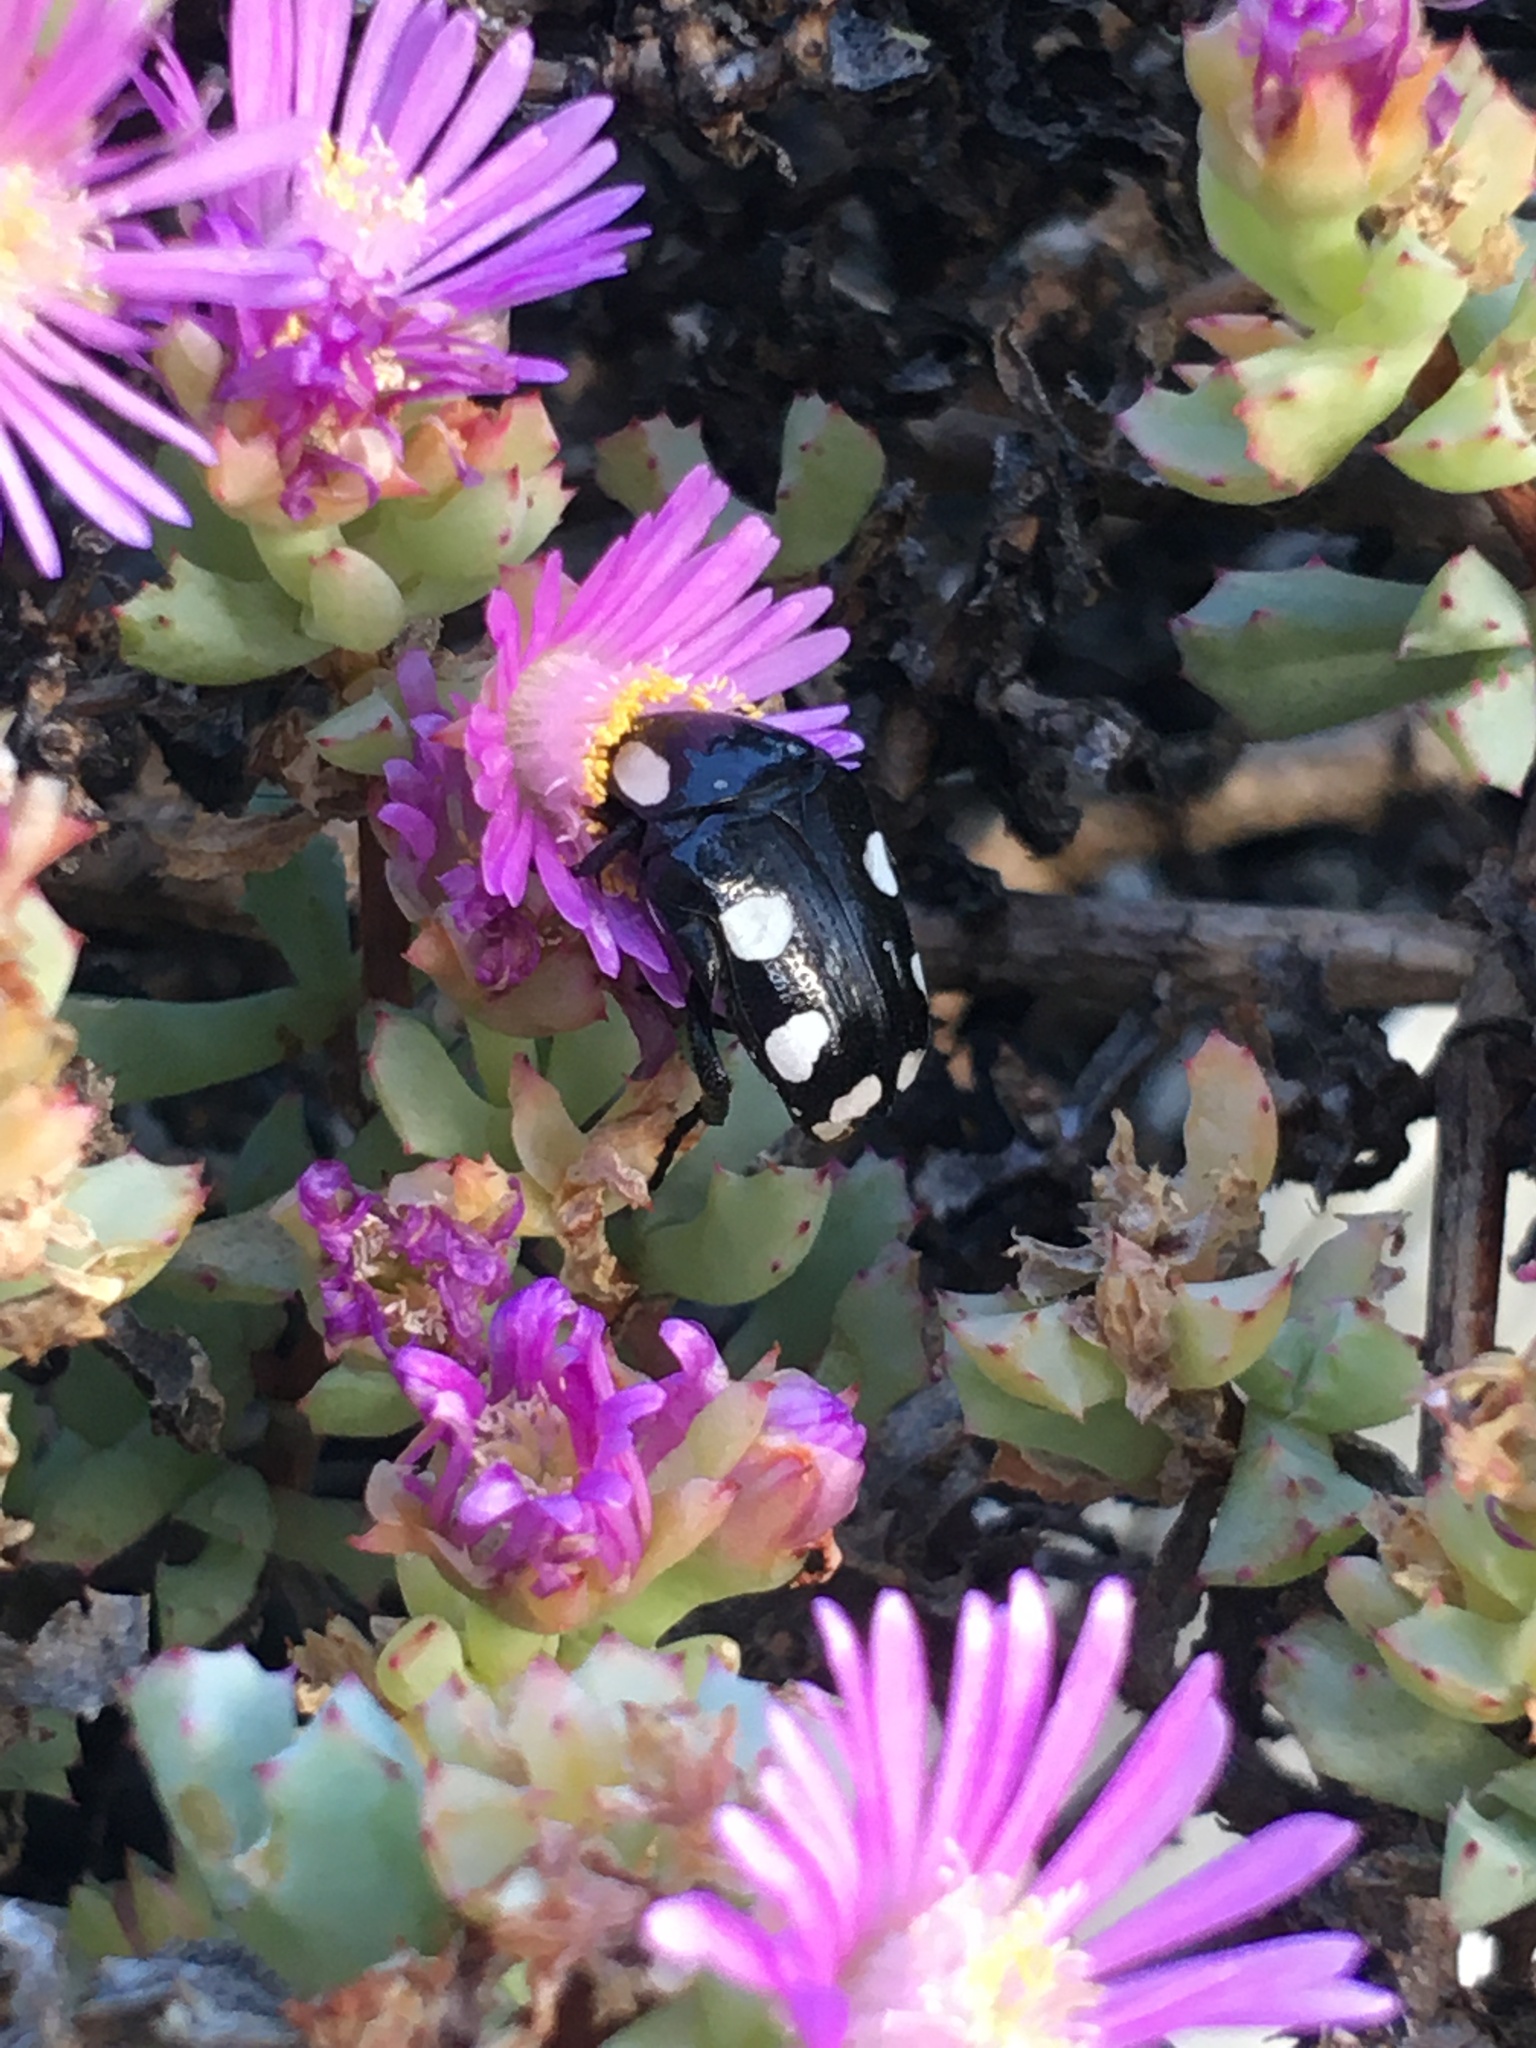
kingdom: Animalia
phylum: Arthropoda
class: Insecta
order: Coleoptera
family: Scarabaeidae
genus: Mausoleopsis
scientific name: Mausoleopsis amabilis
